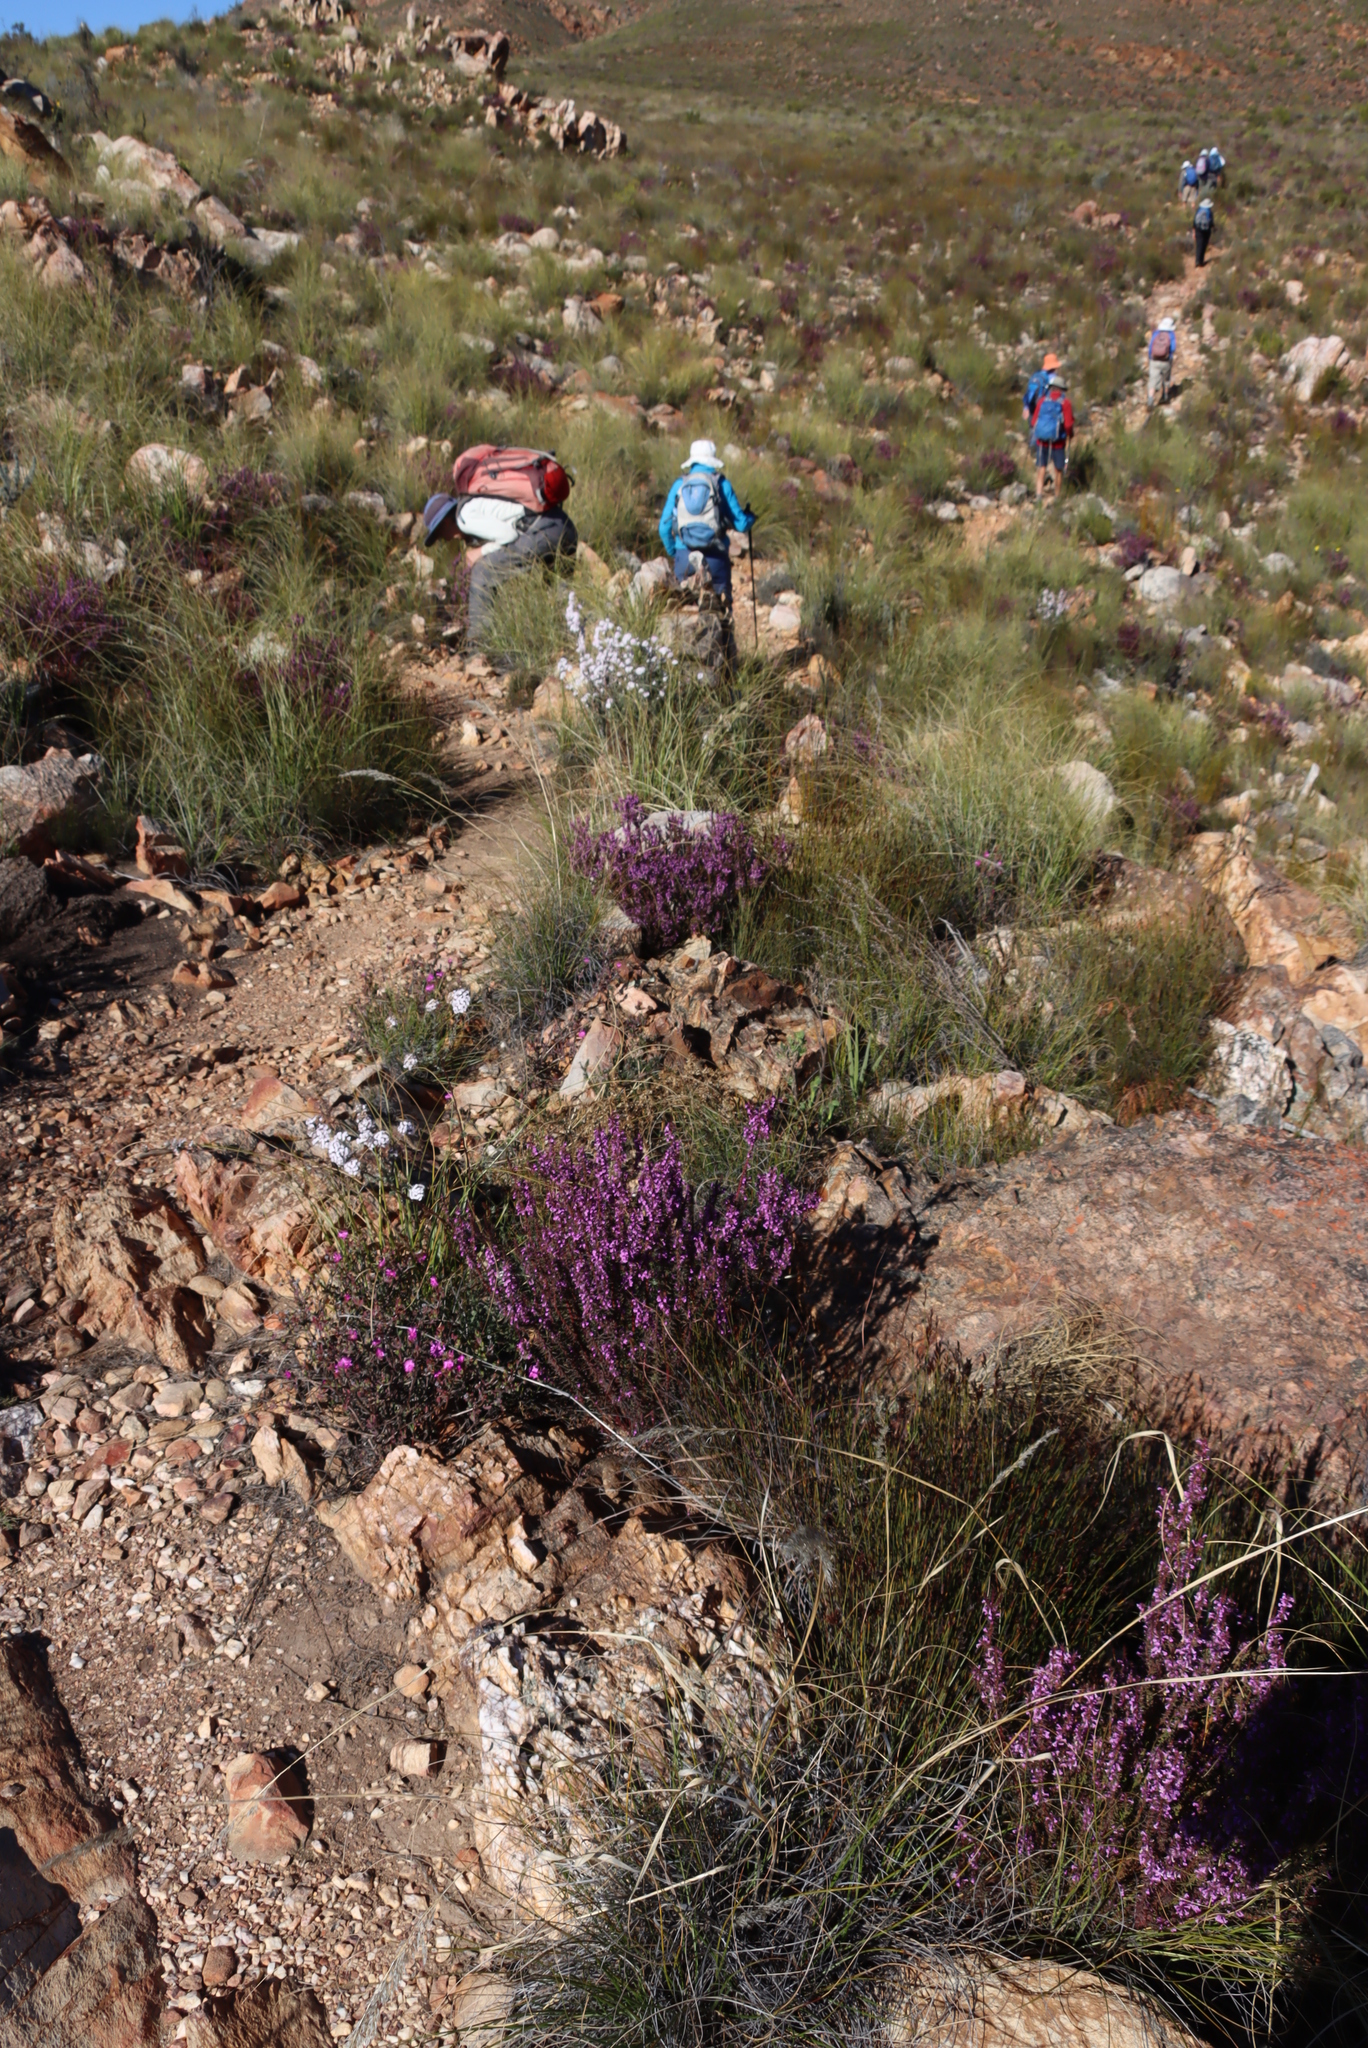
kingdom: Plantae
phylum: Tracheophyta
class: Magnoliopsida
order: Fabales
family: Polygalaceae
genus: Muraltia
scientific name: Muraltia juniperifolia
